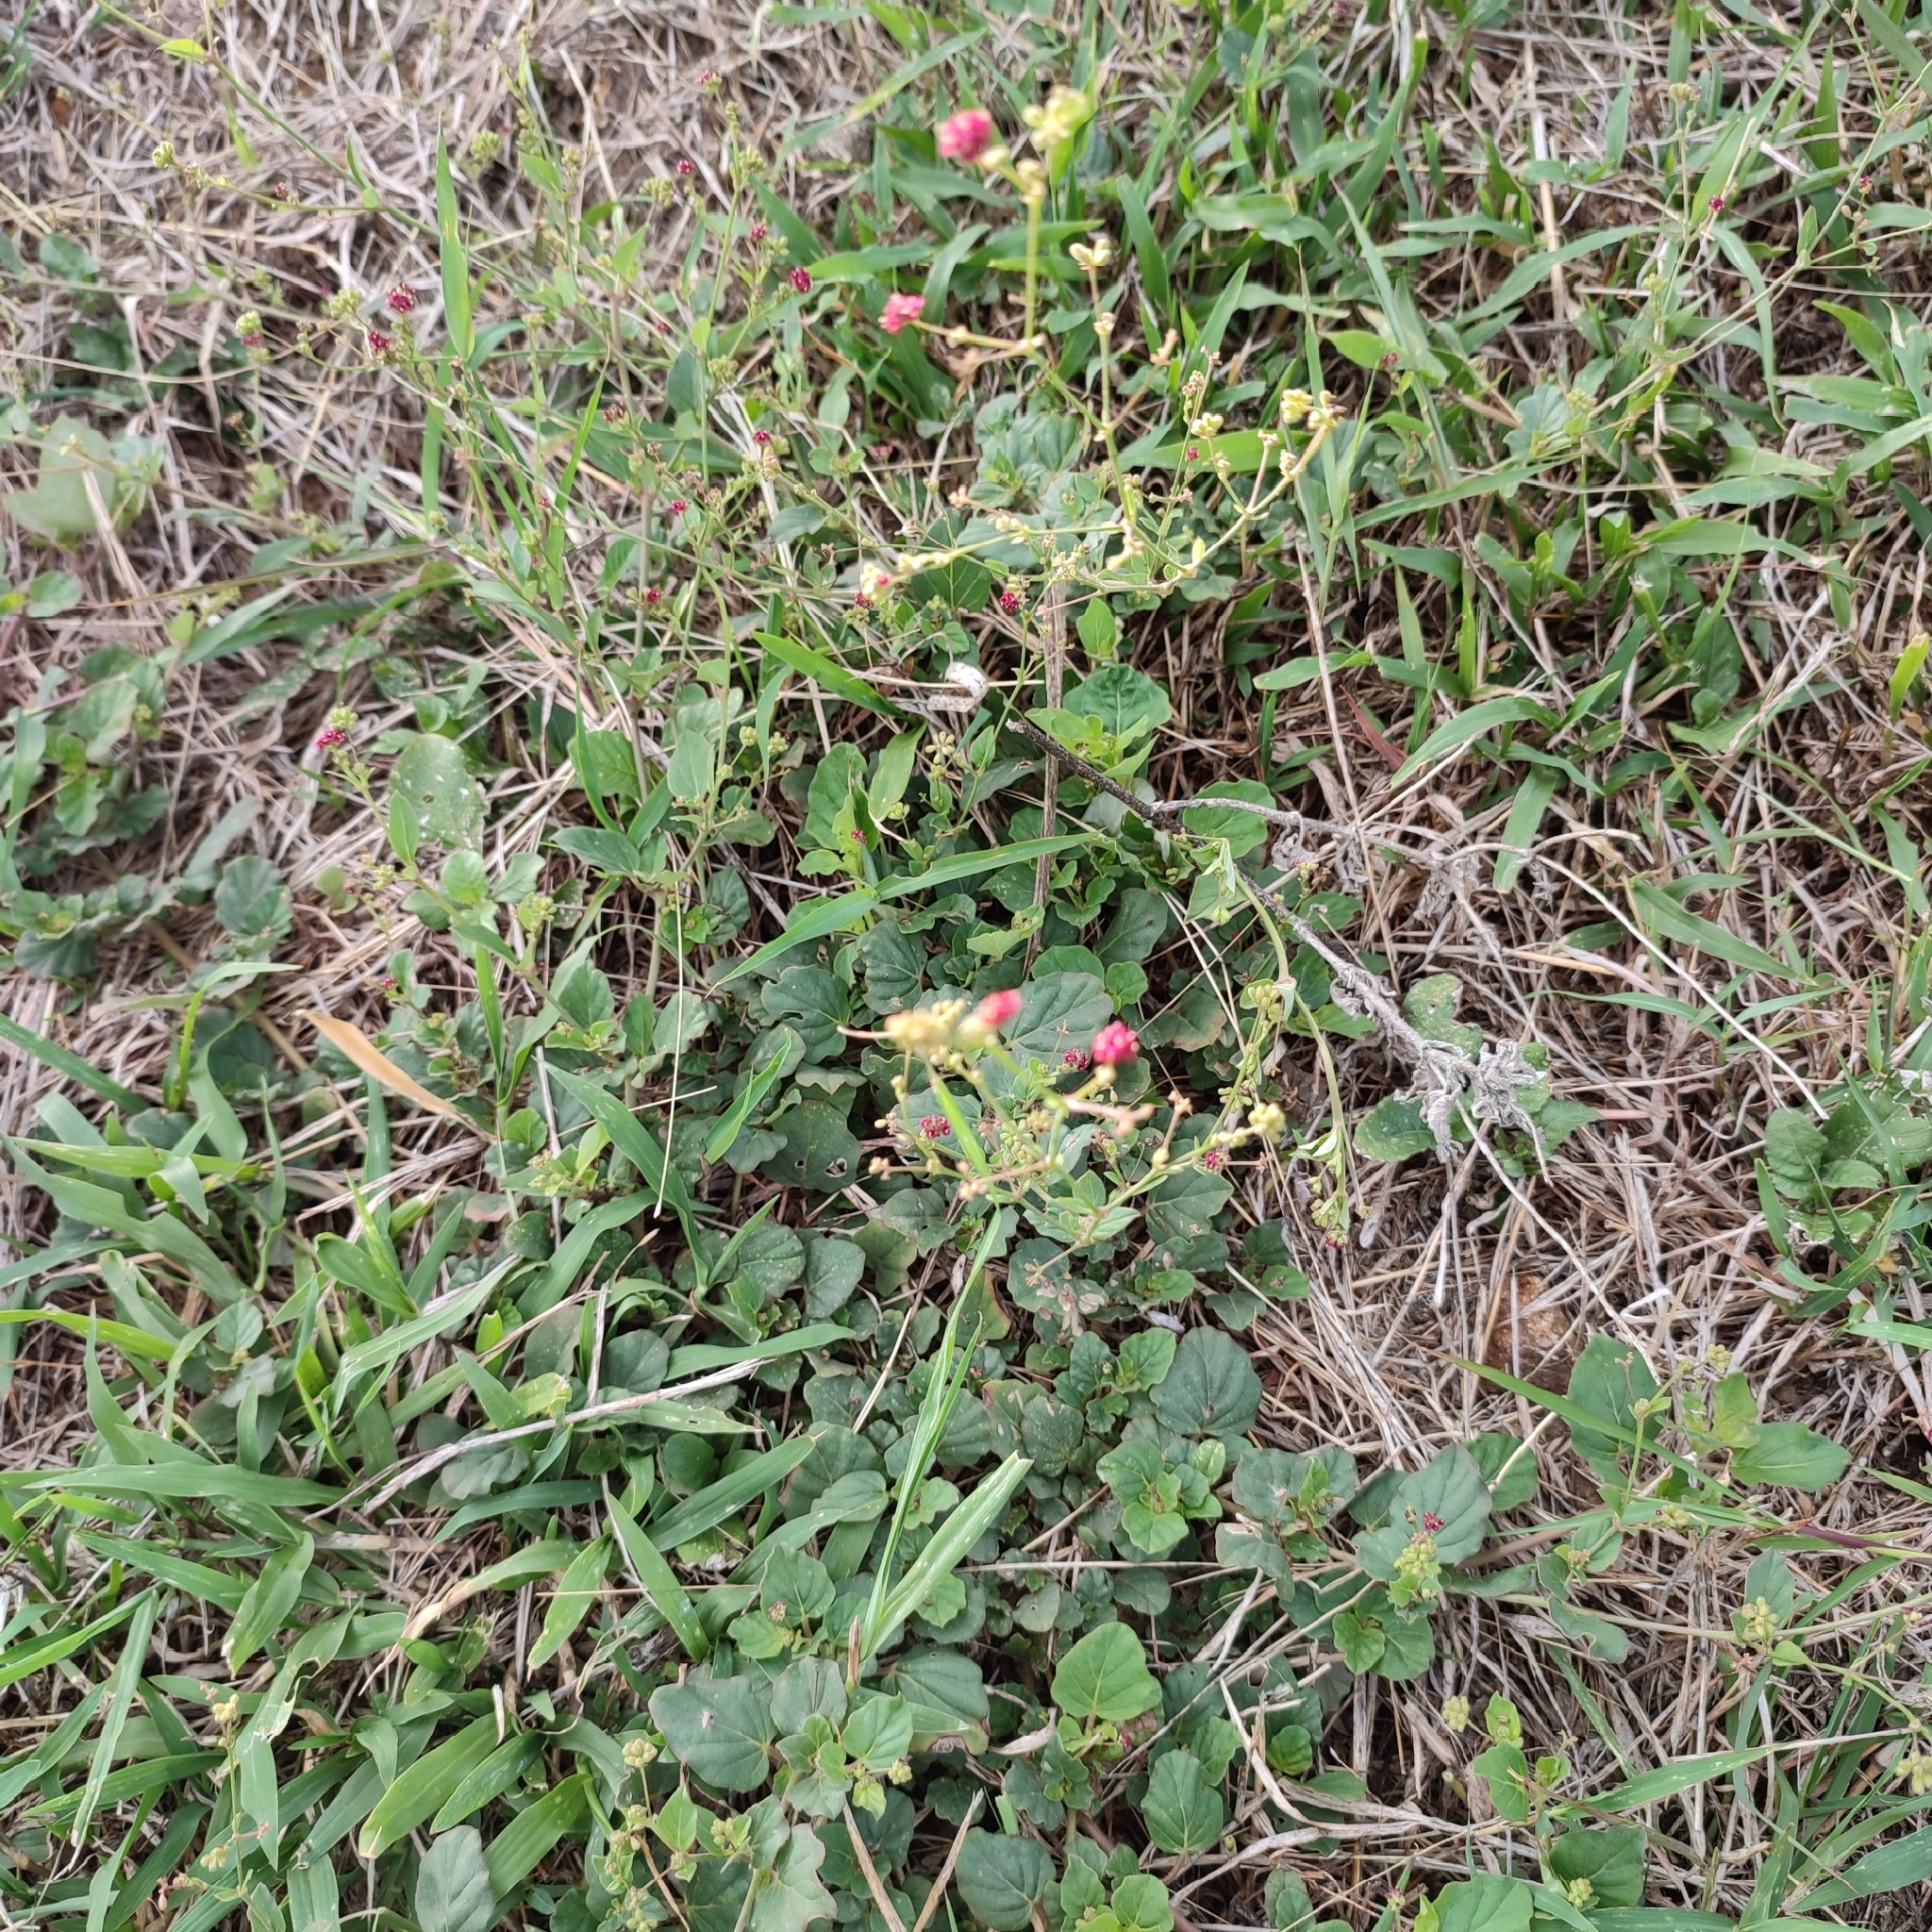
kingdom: Plantae
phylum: Tracheophyta
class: Magnoliopsida
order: Caryophyllales
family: Nyctaginaceae
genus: Boerhavia
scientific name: Boerhavia coccinea
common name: Scarlet spiderling
